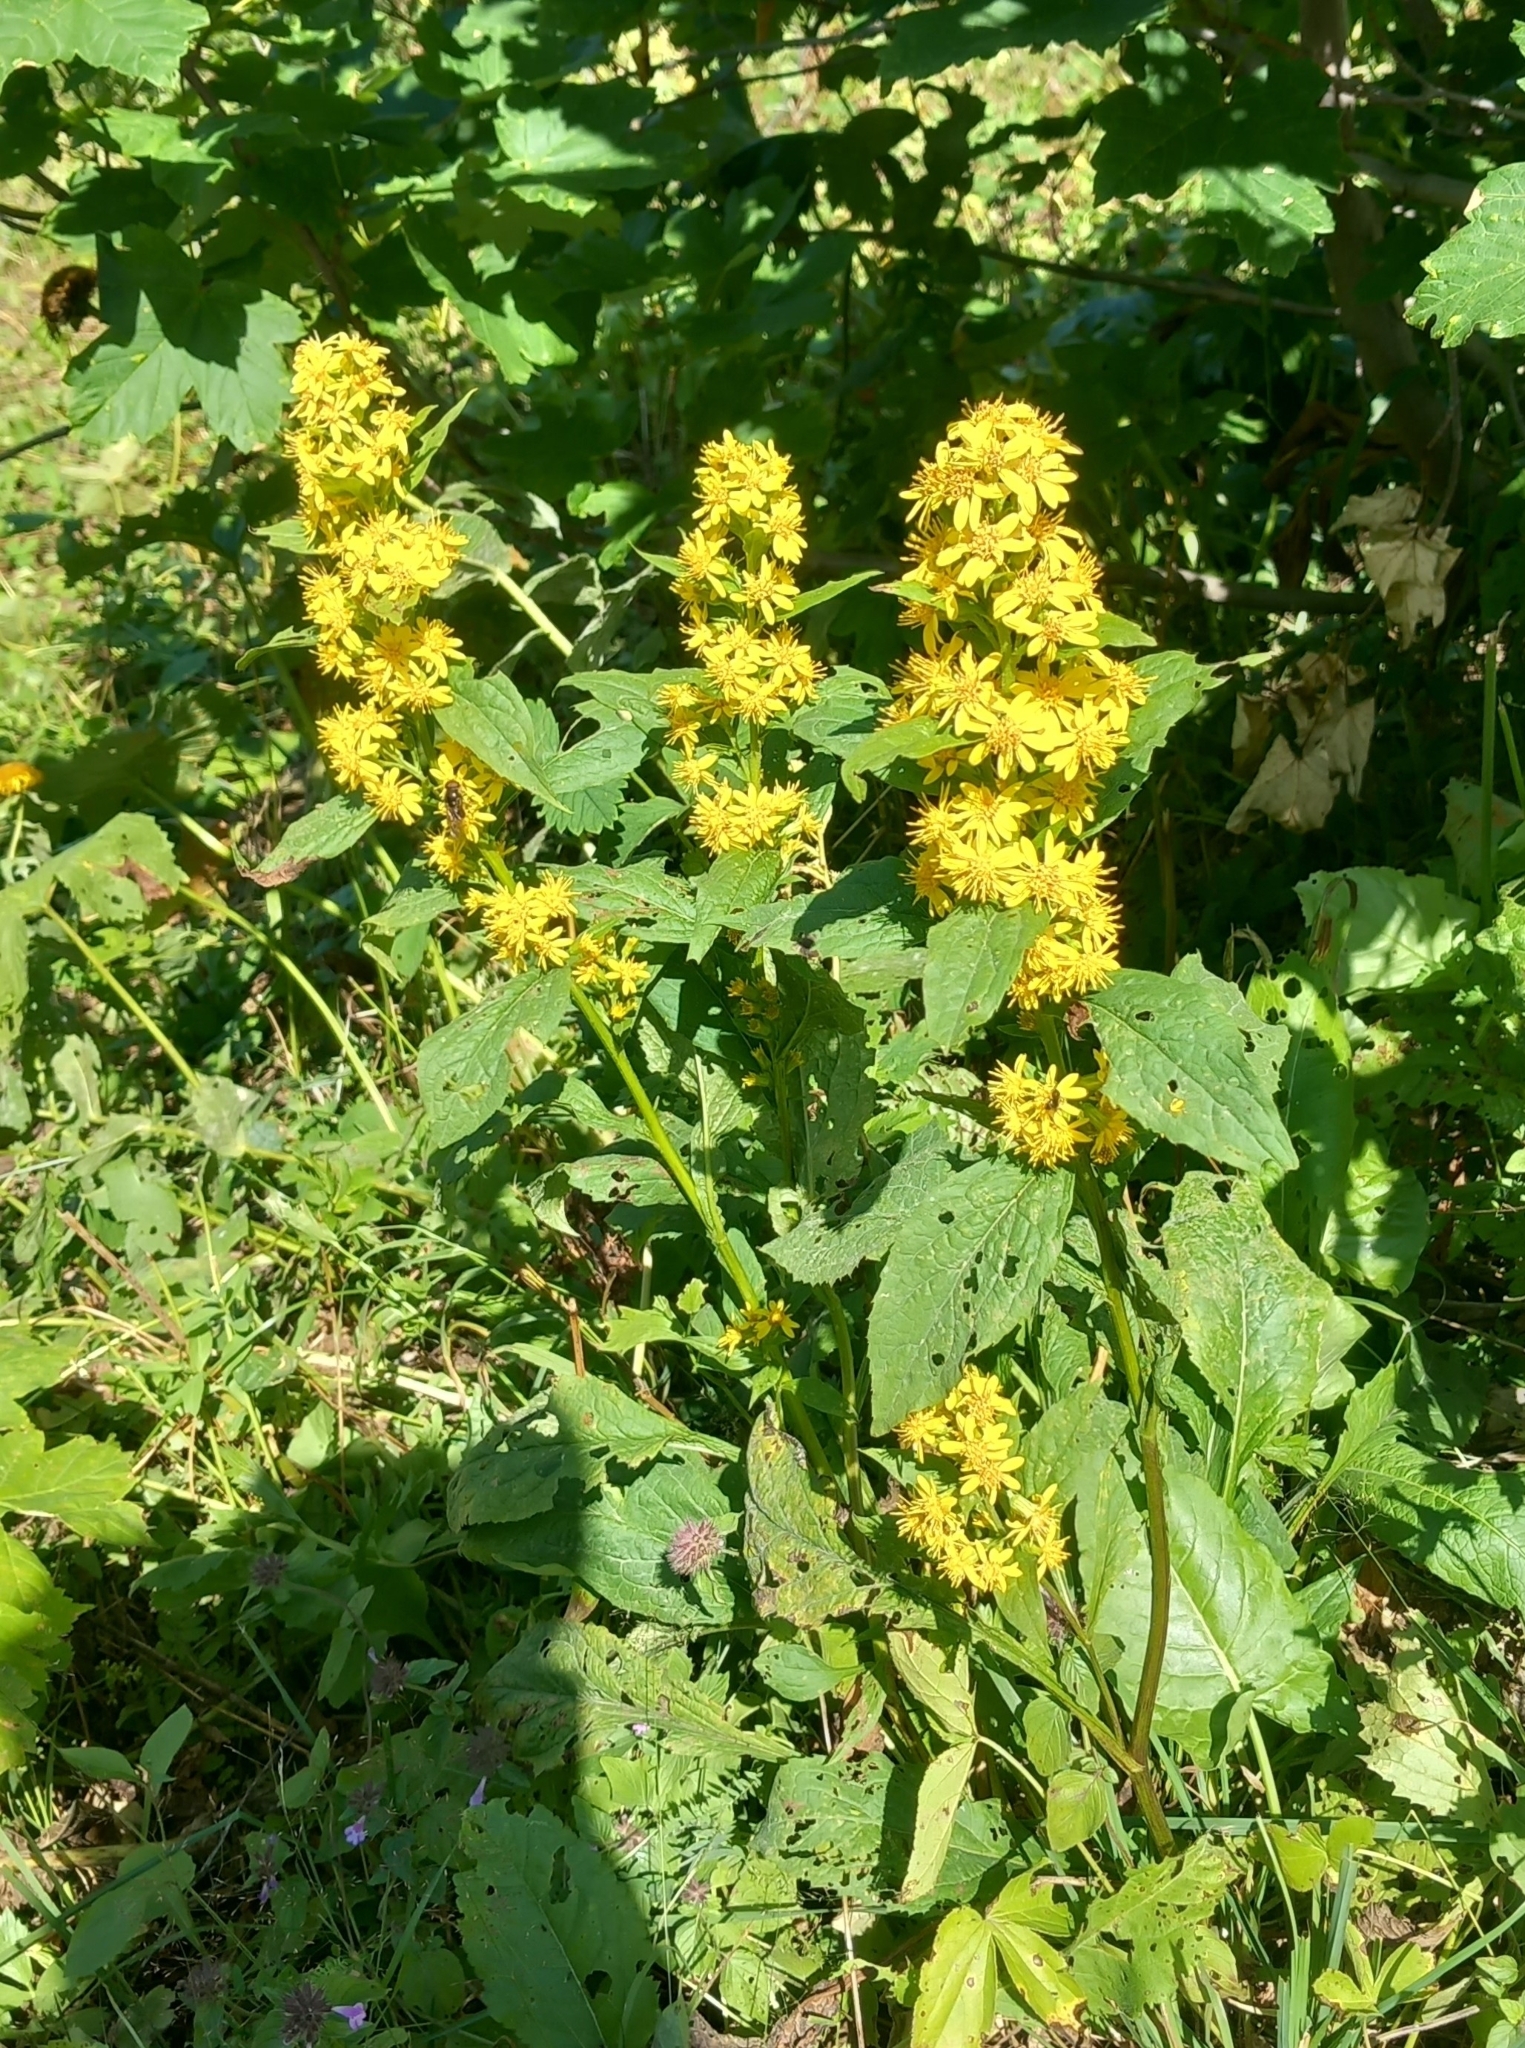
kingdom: Plantae
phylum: Tracheophyta
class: Magnoliopsida
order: Asterales
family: Asteraceae
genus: Solidago
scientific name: Solidago virgaurea
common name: Goldenrod
